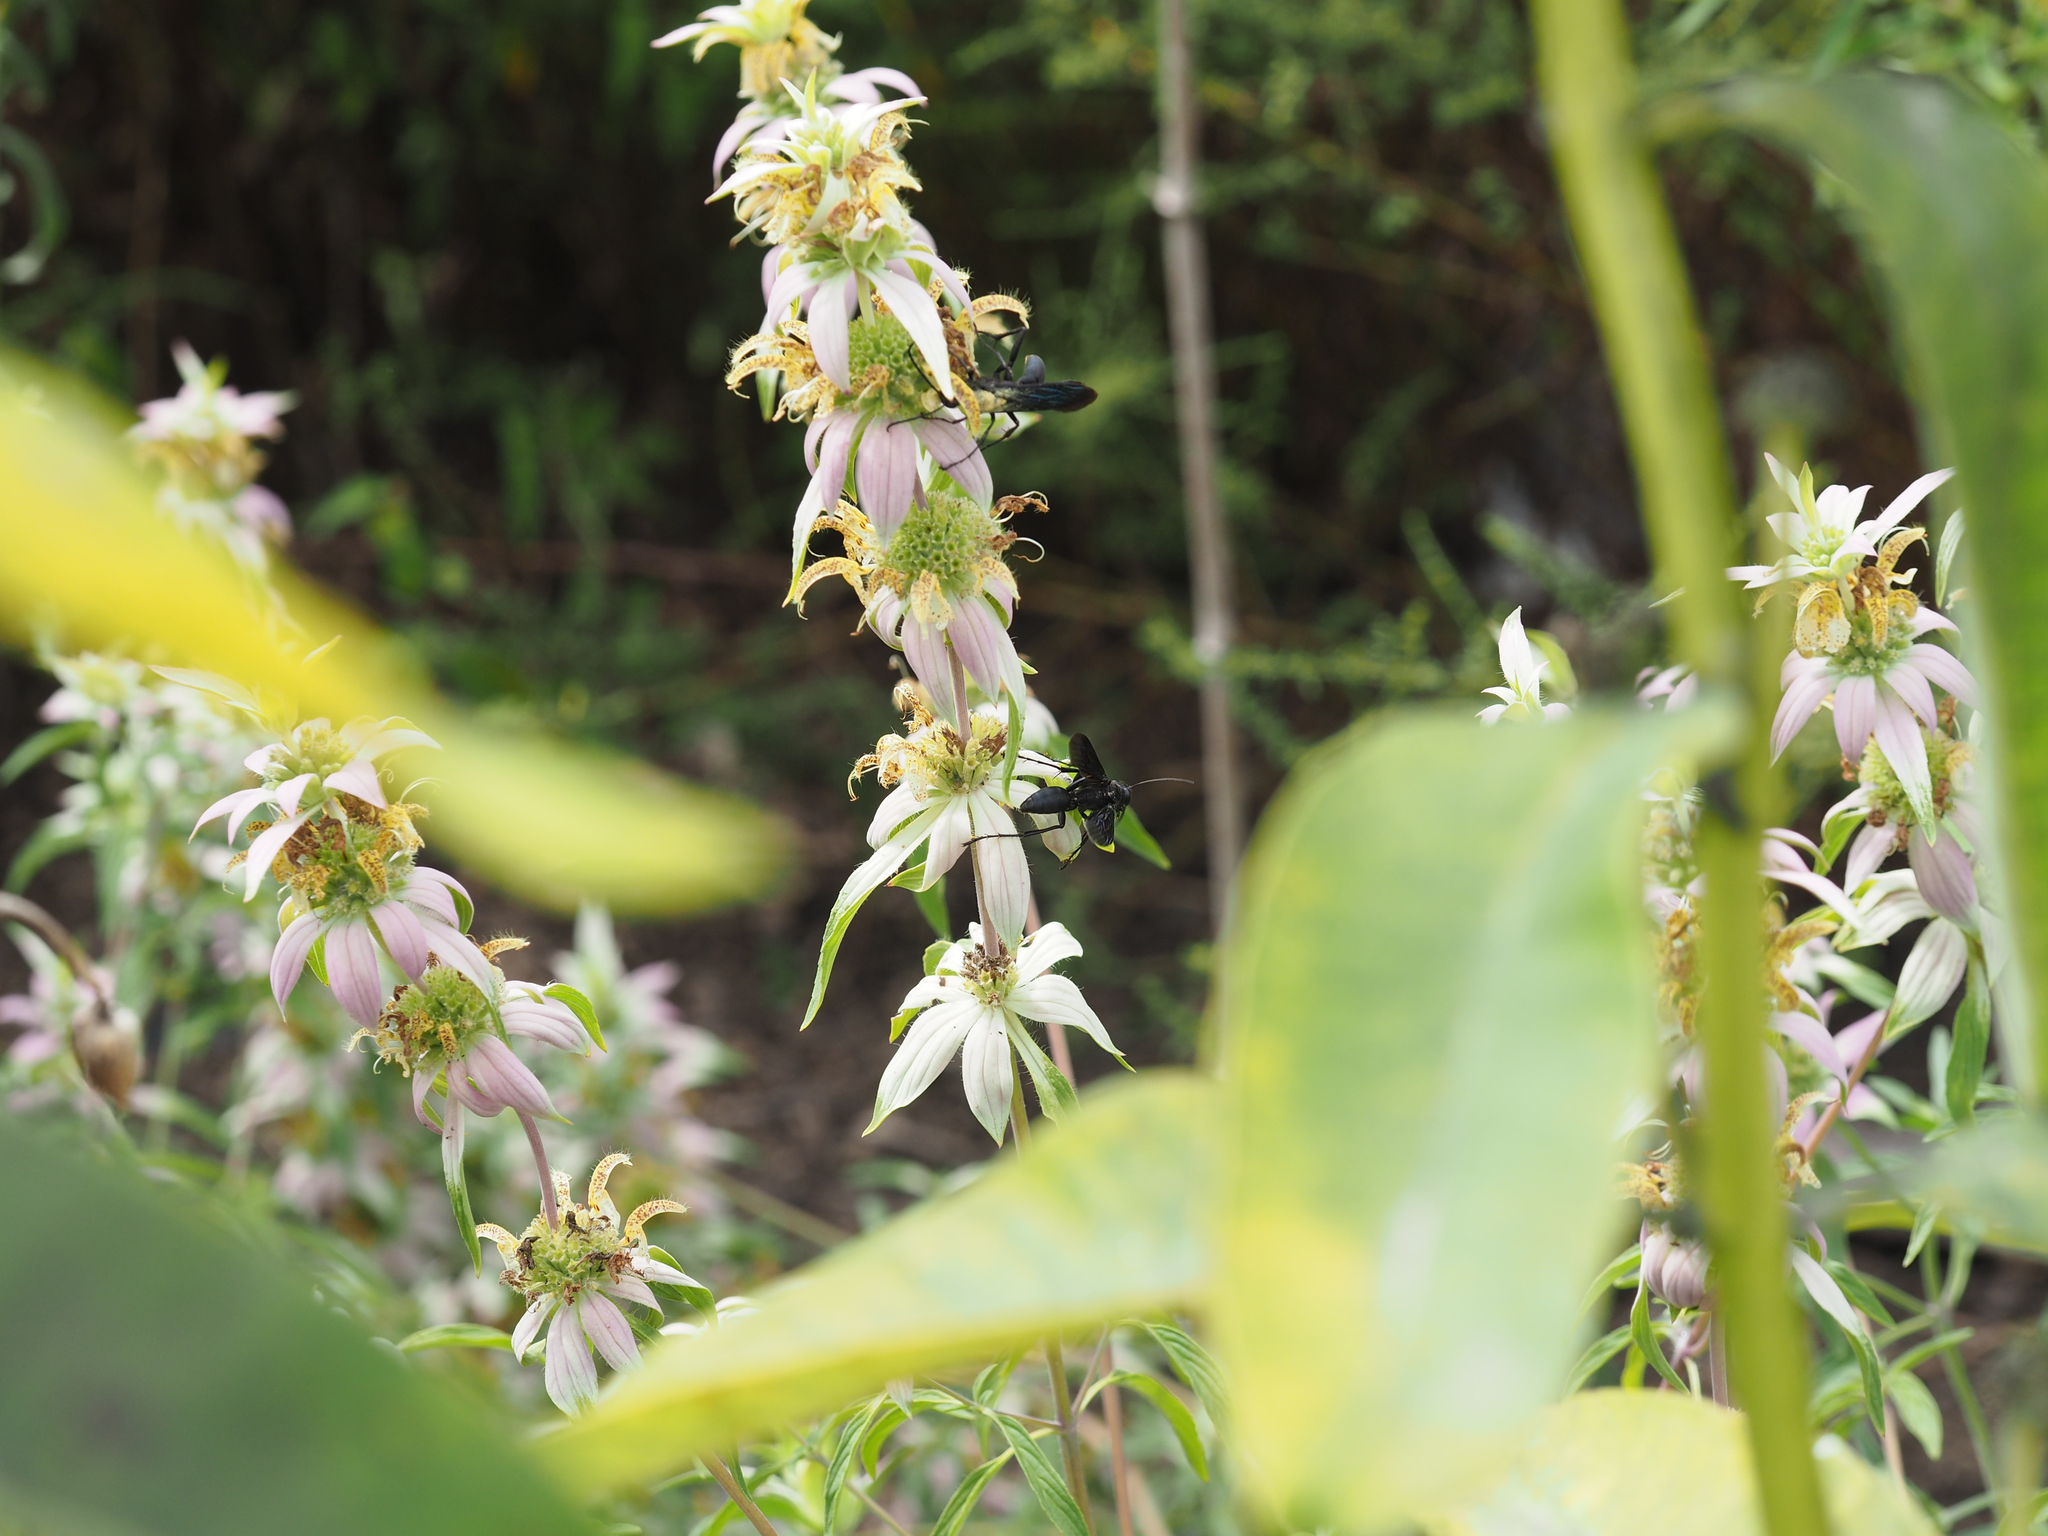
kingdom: Plantae
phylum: Tracheophyta
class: Magnoliopsida
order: Lamiales
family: Lamiaceae
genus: Monarda
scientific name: Monarda punctata
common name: Dotted monarda
